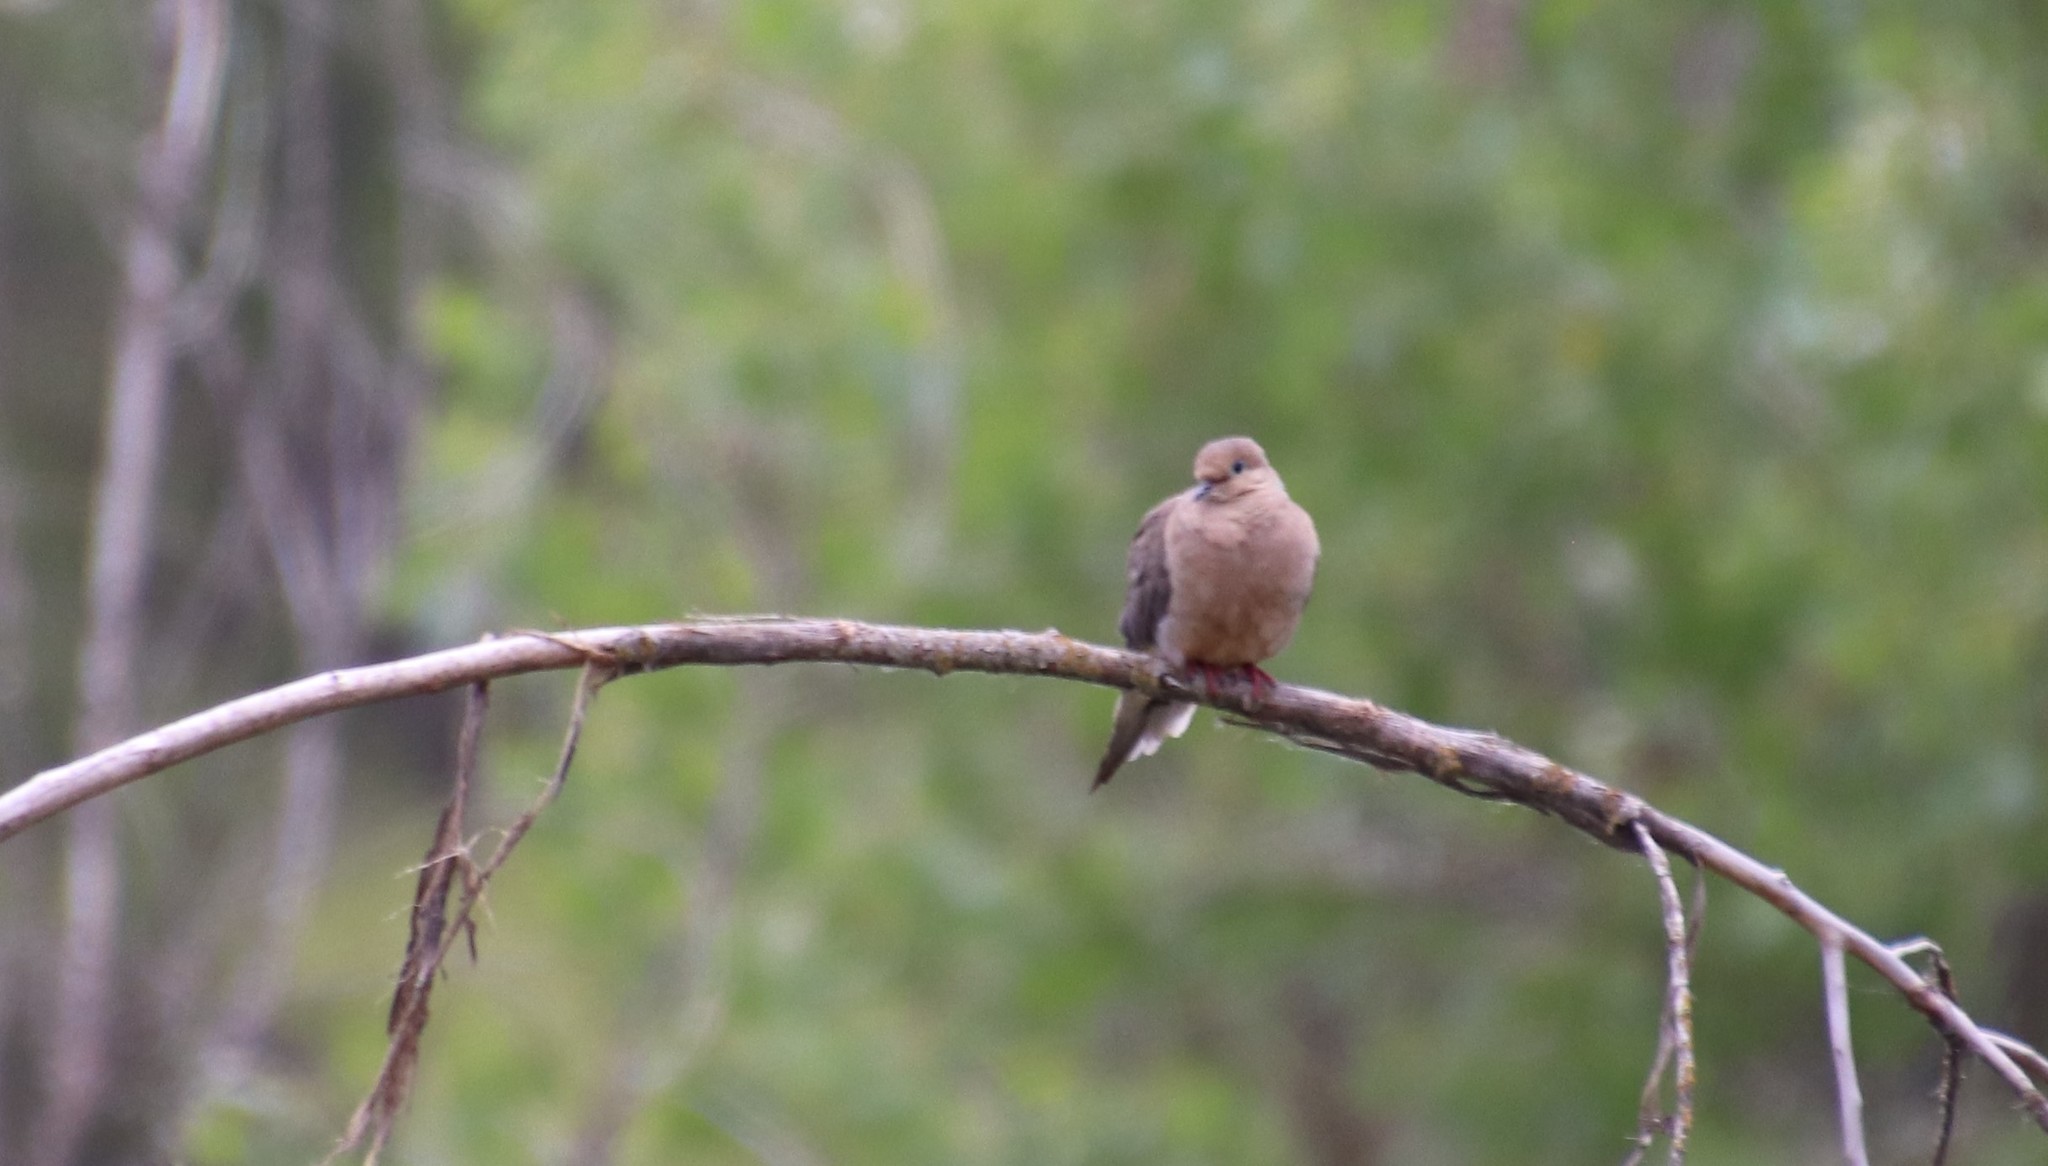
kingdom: Animalia
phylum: Chordata
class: Aves
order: Columbiformes
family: Columbidae
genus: Zenaida
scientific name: Zenaida macroura
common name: Mourning dove
